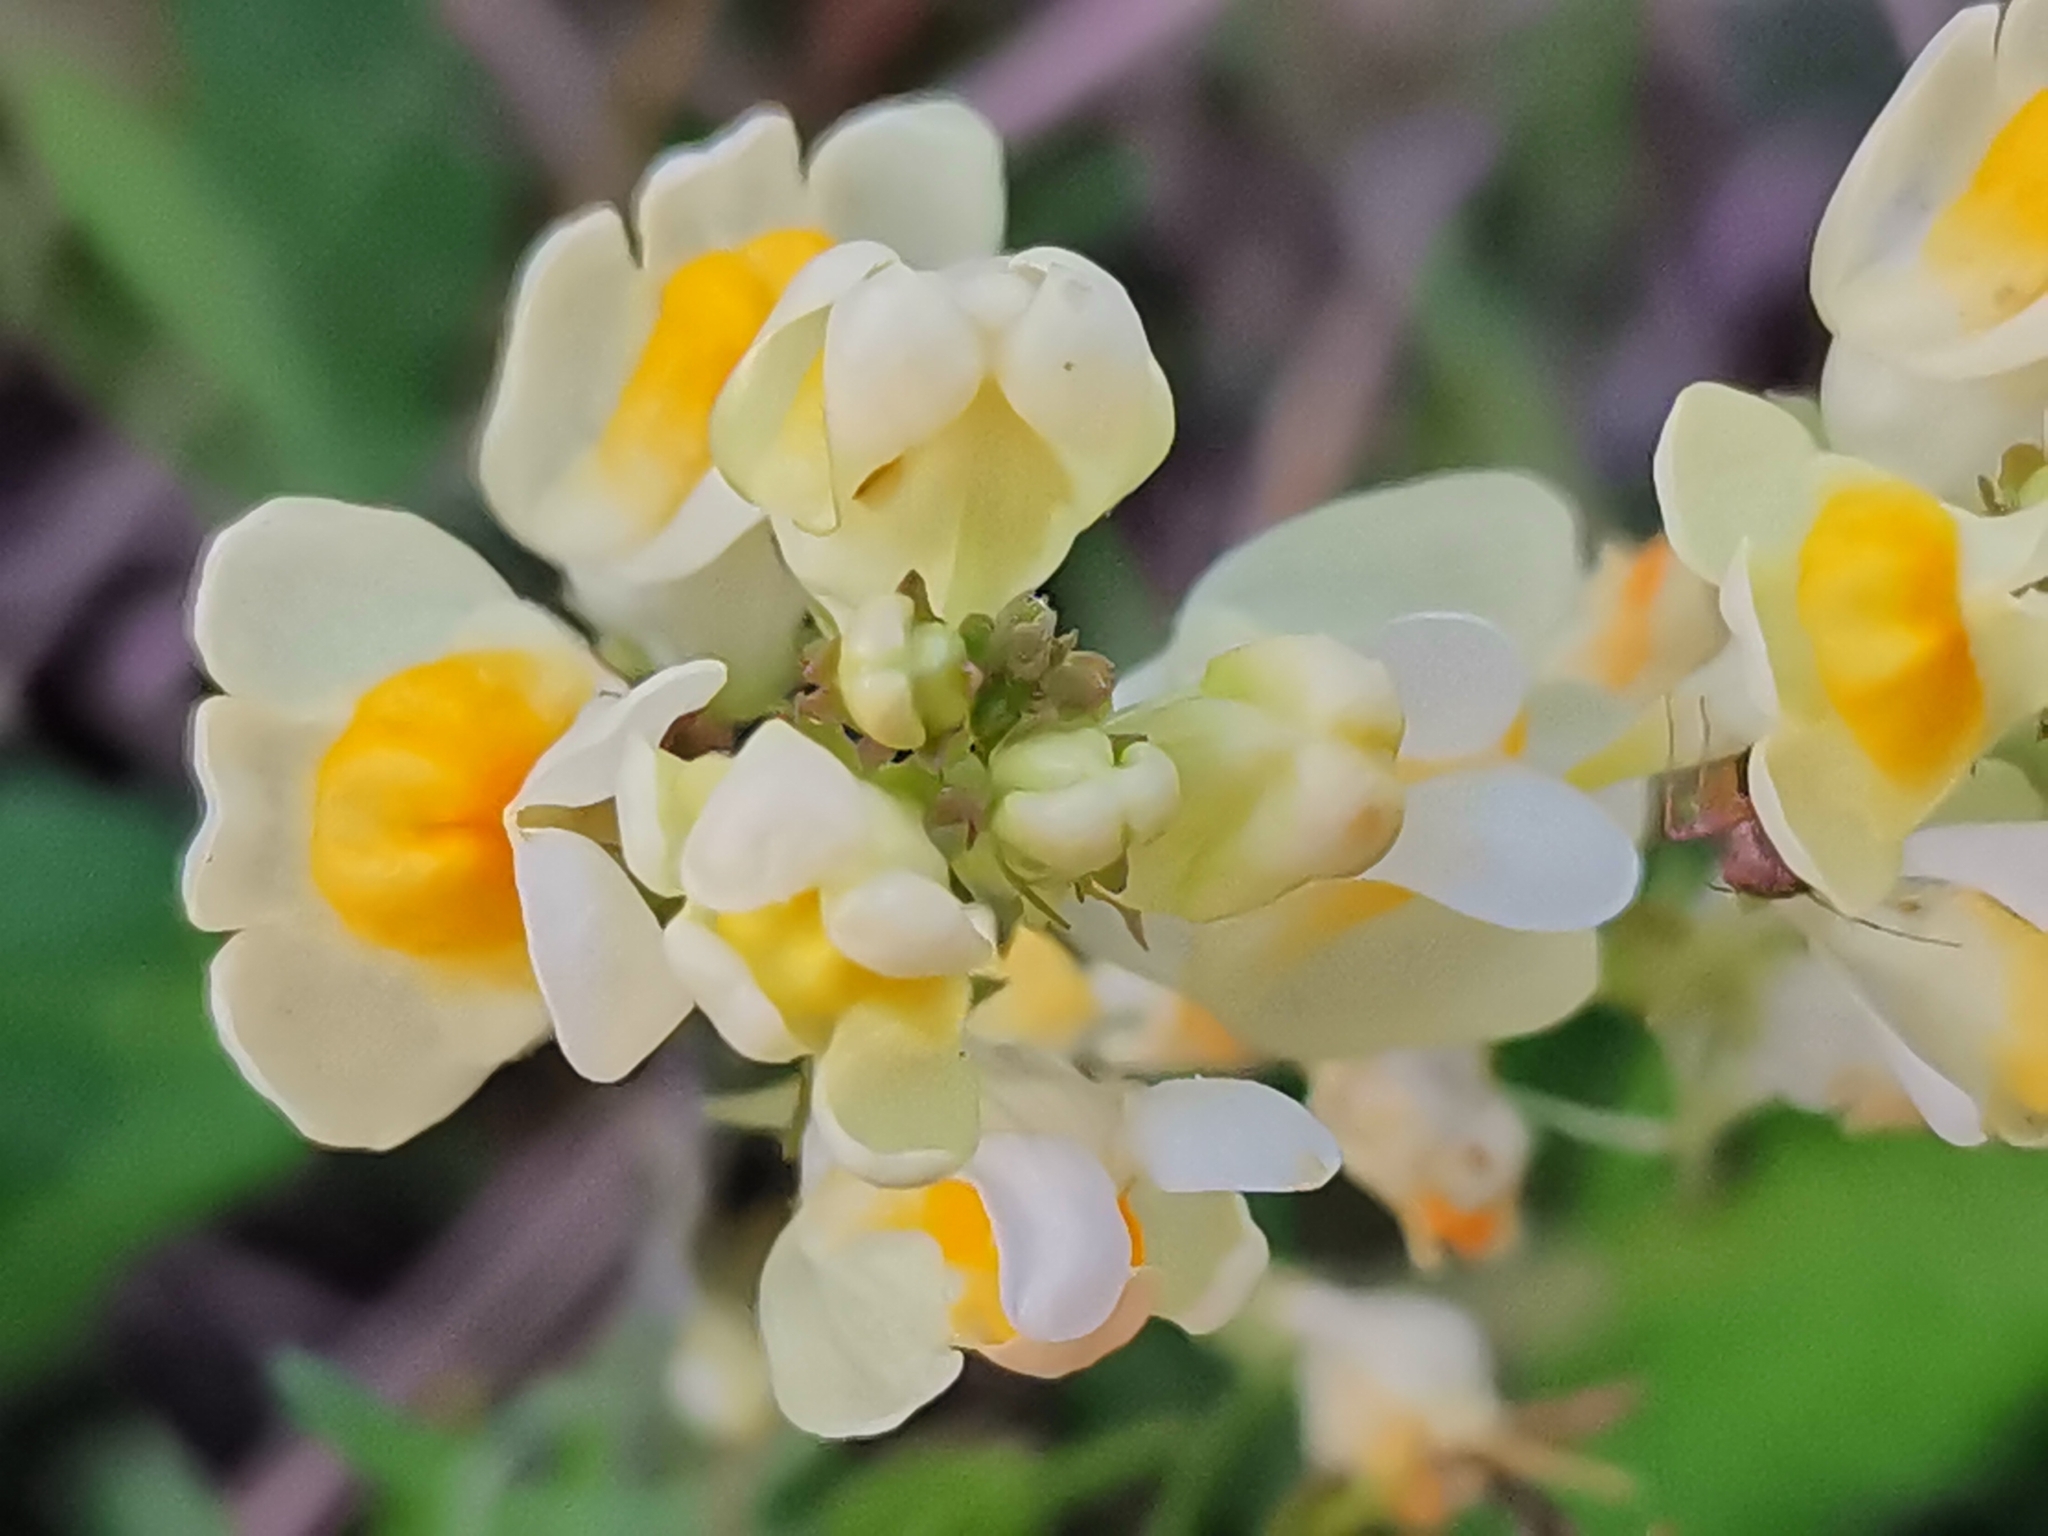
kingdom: Plantae
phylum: Tracheophyta
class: Magnoliopsida
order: Lamiales
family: Plantaginaceae
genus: Linaria
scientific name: Linaria vulgaris
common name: Butter and eggs
